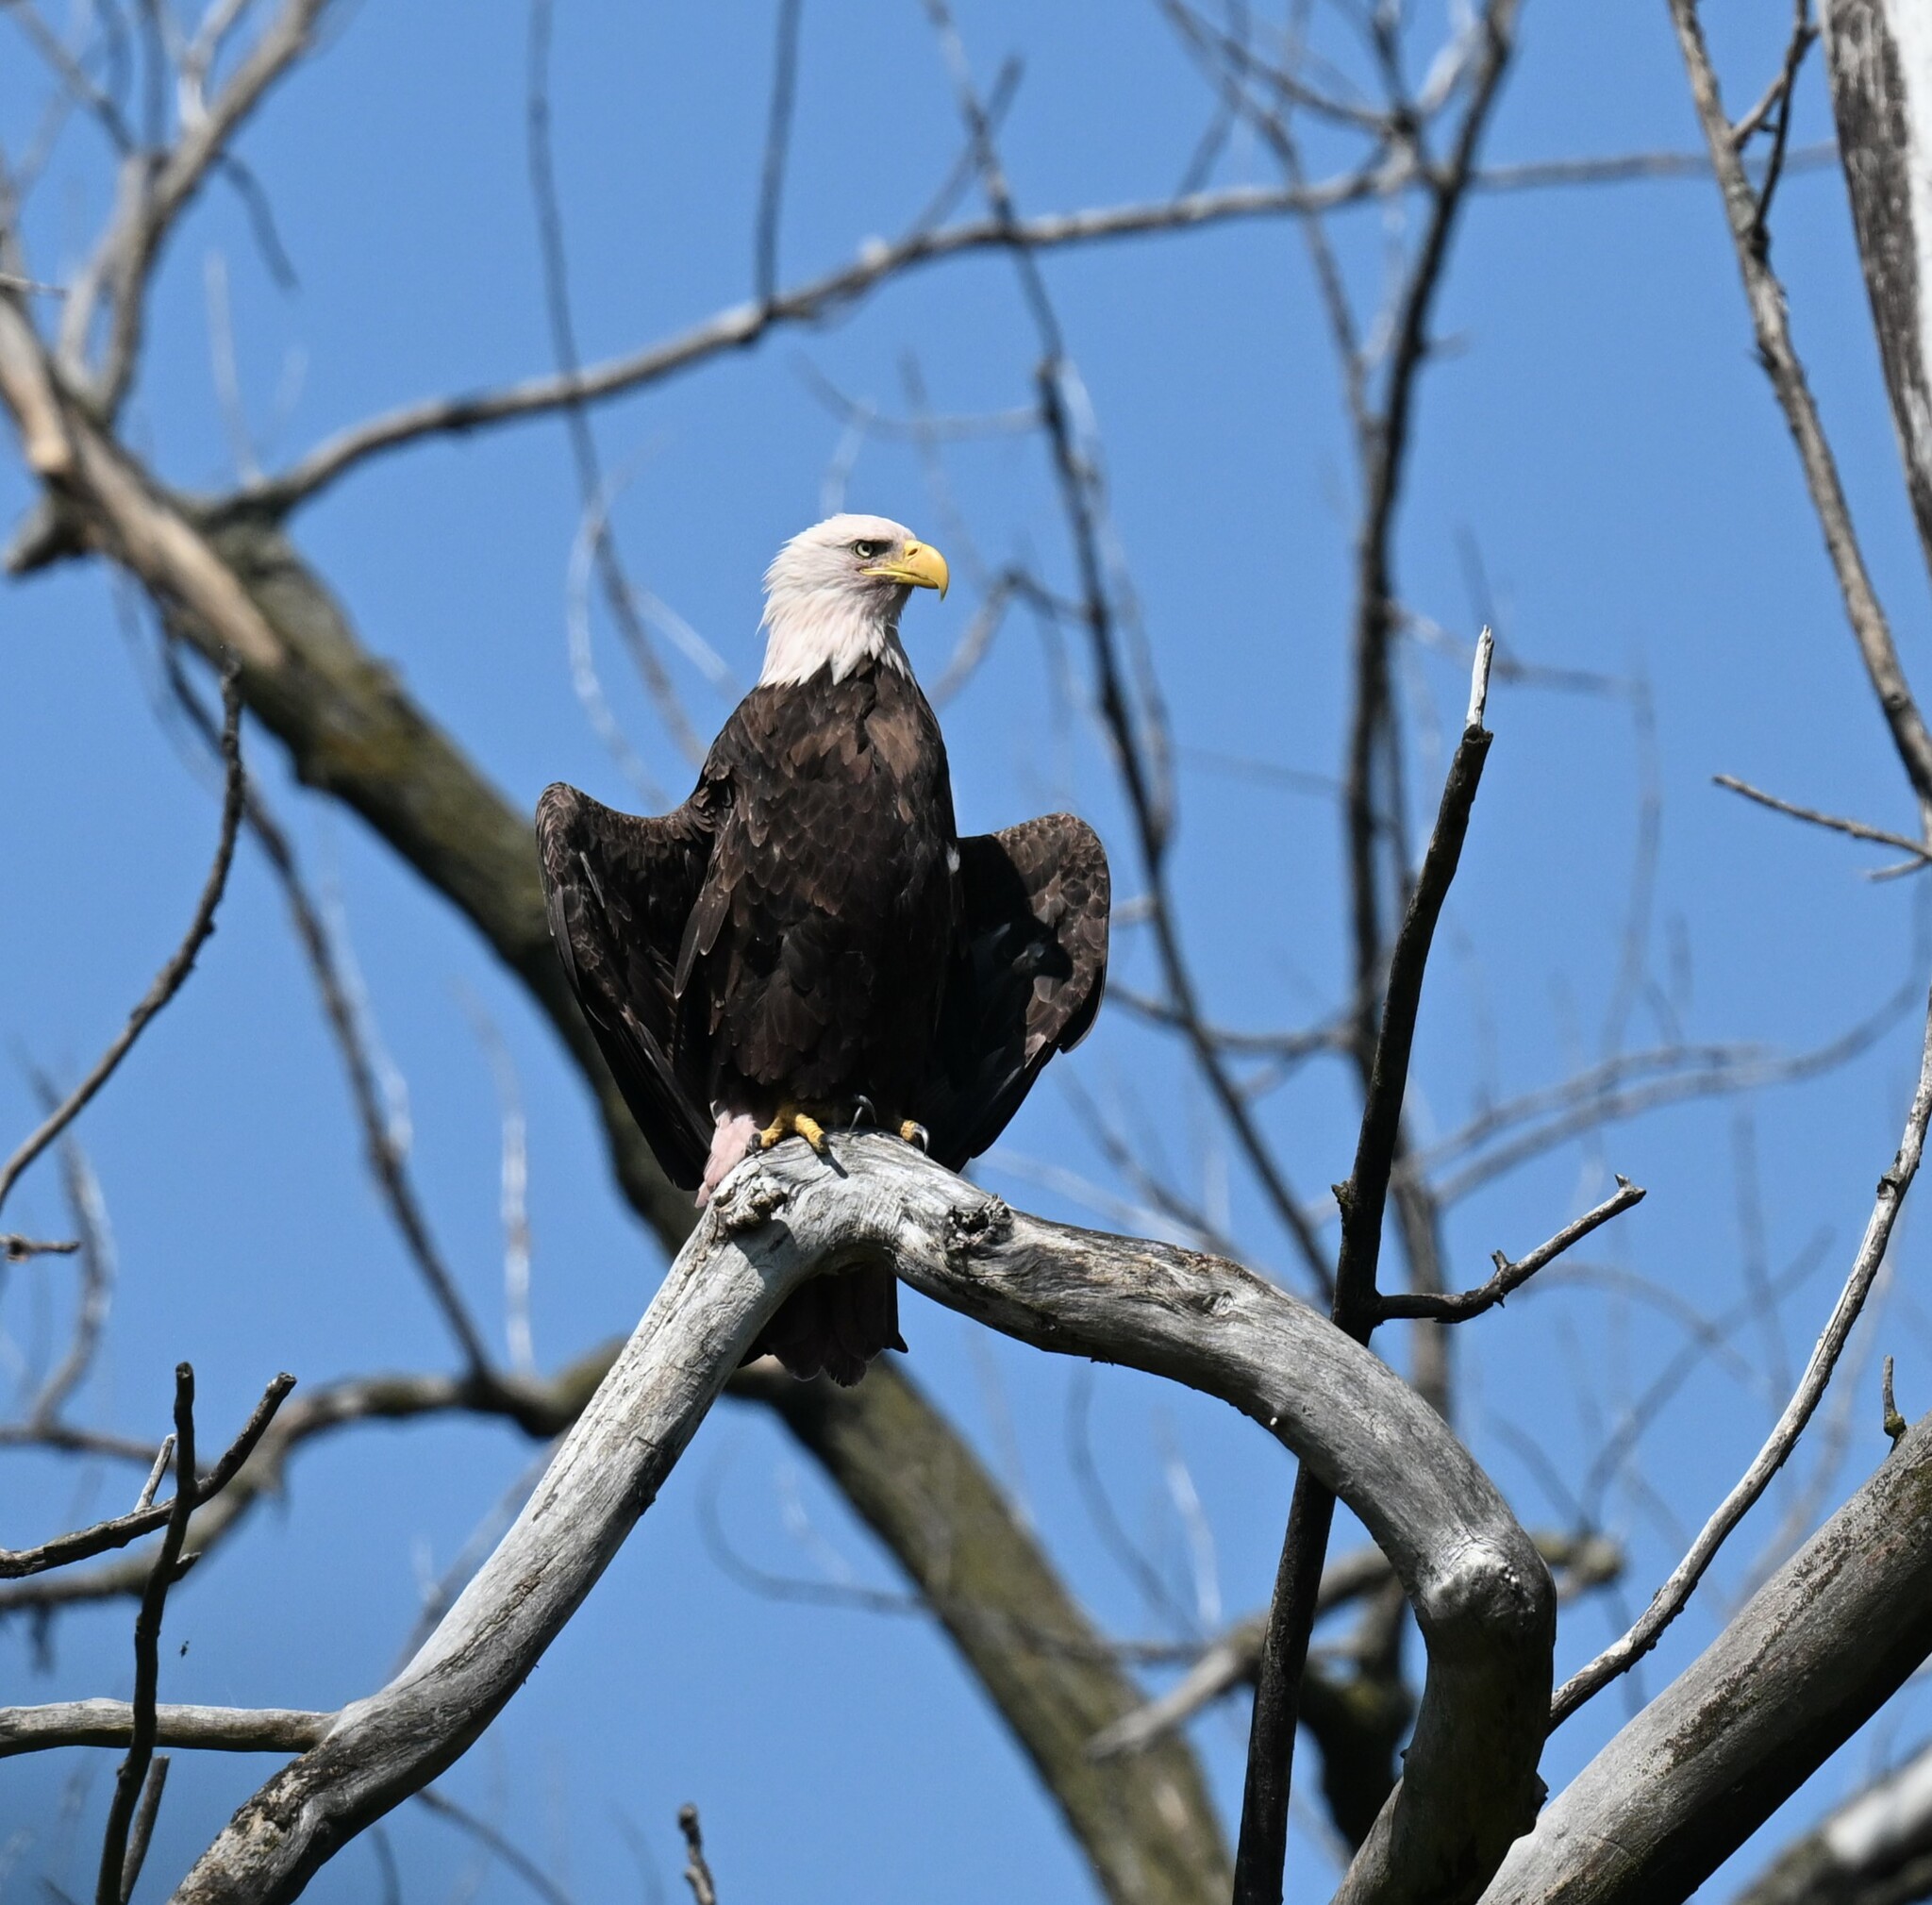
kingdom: Animalia
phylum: Chordata
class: Aves
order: Accipitriformes
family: Accipitridae
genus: Haliaeetus
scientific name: Haliaeetus leucocephalus
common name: Bald eagle
